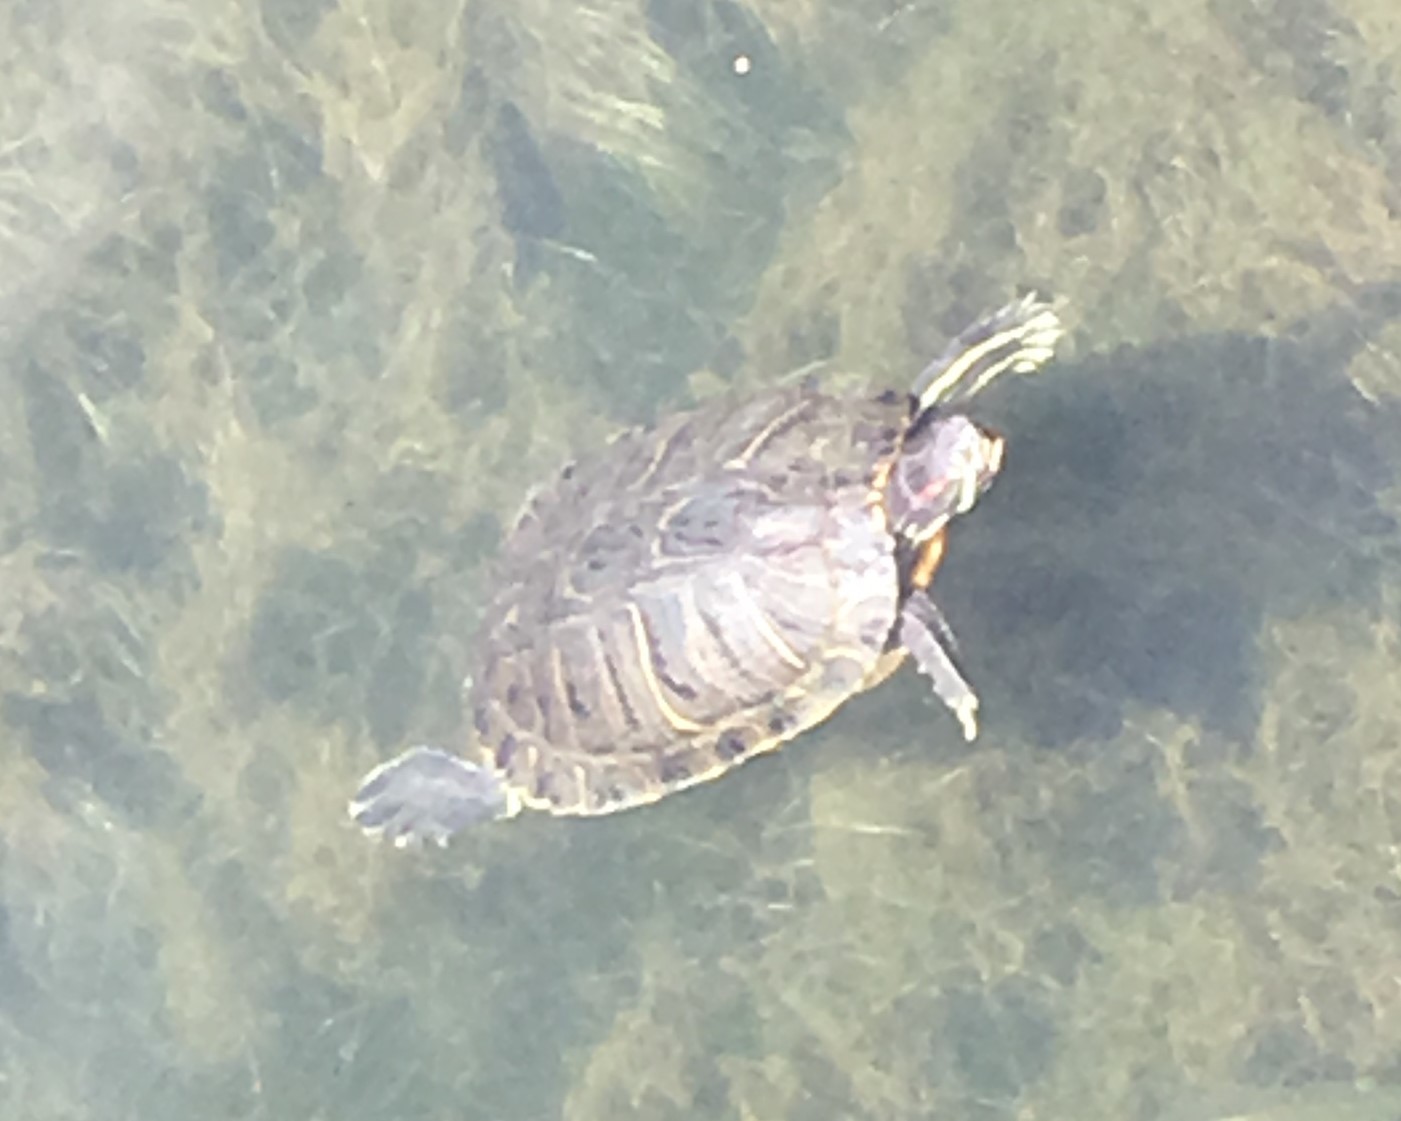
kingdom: Animalia
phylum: Chordata
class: Testudines
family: Emydidae
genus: Trachemys
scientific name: Trachemys scripta
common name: Slider
